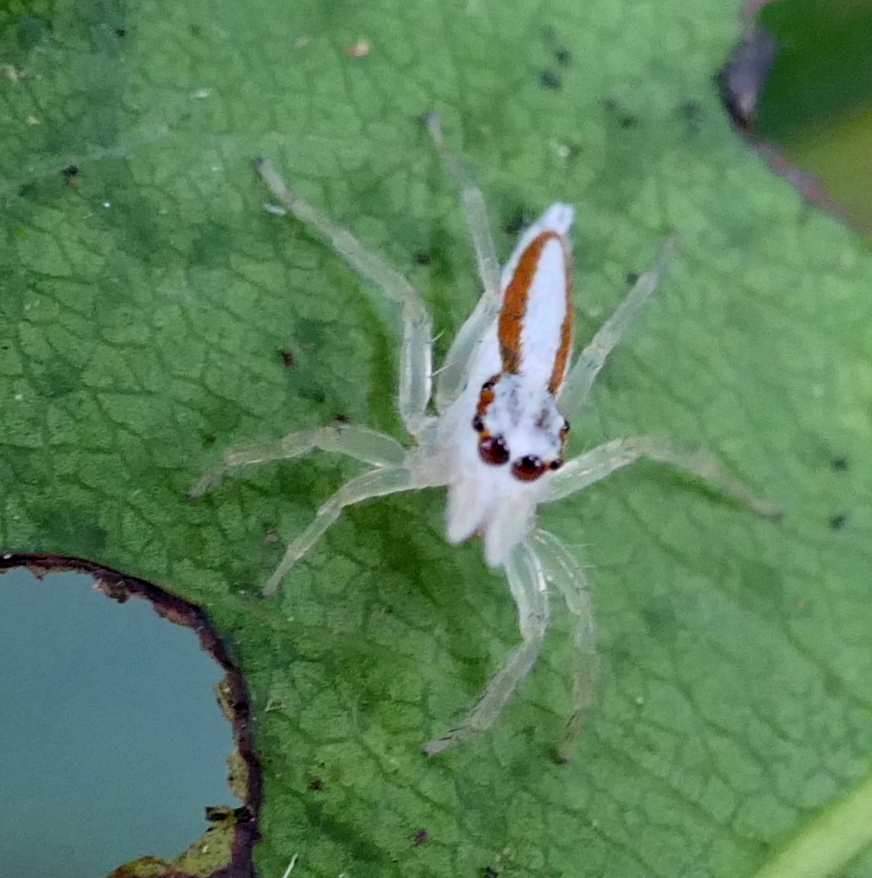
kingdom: Animalia
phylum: Arthropoda
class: Arachnida
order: Araneae
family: Salticidae
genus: Chira
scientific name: Chira trivittata
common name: Jumping spiders
